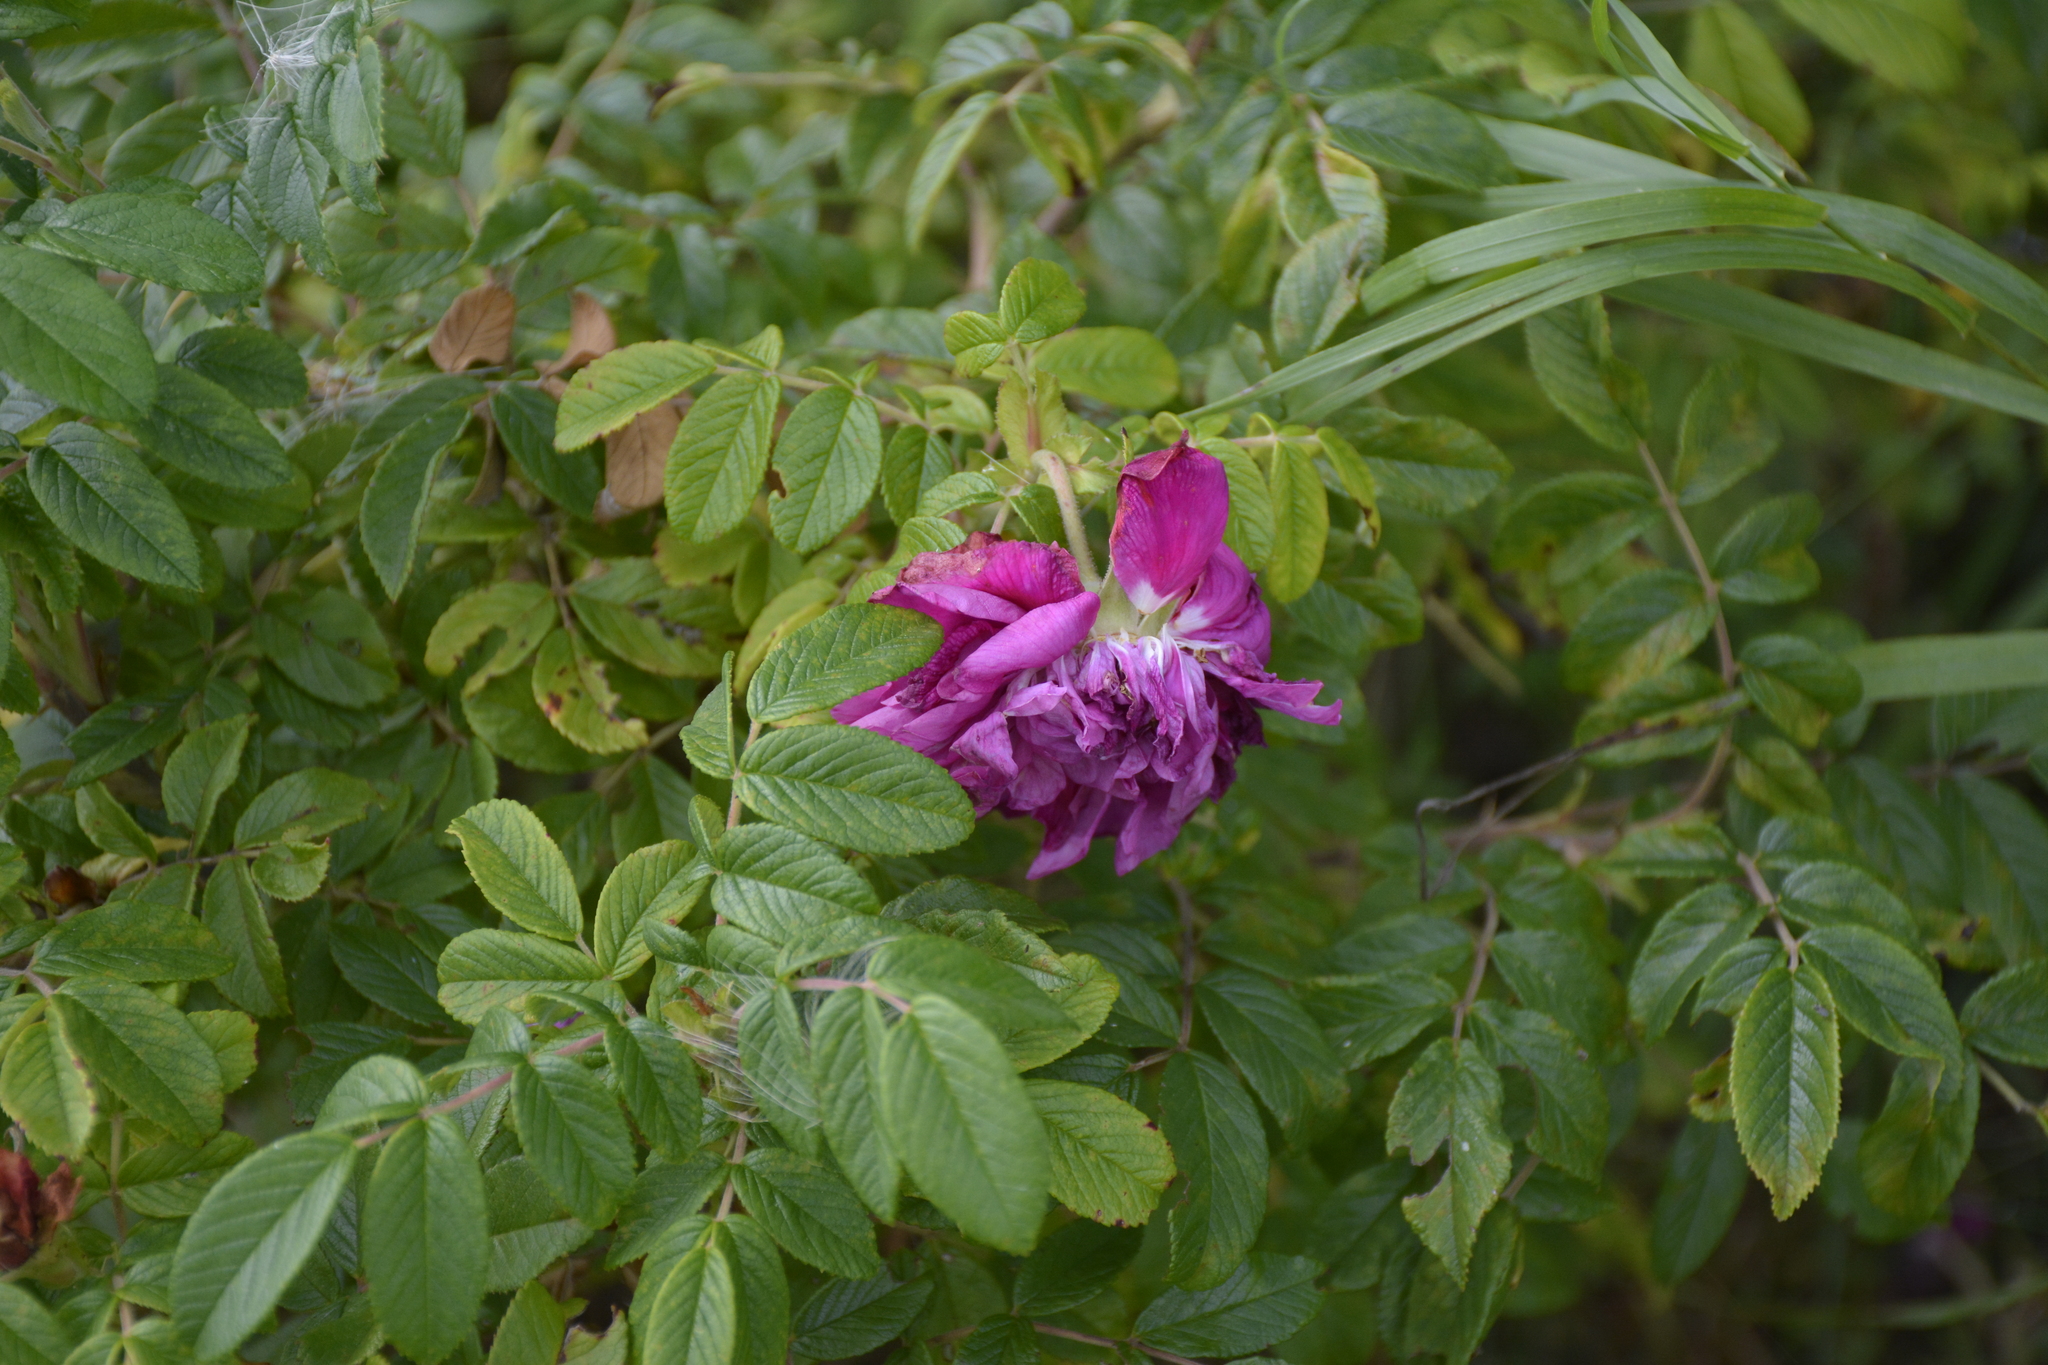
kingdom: Plantae
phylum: Tracheophyta
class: Magnoliopsida
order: Rosales
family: Rosaceae
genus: Rosa
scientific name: Rosa rugosa
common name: Japanese rose
